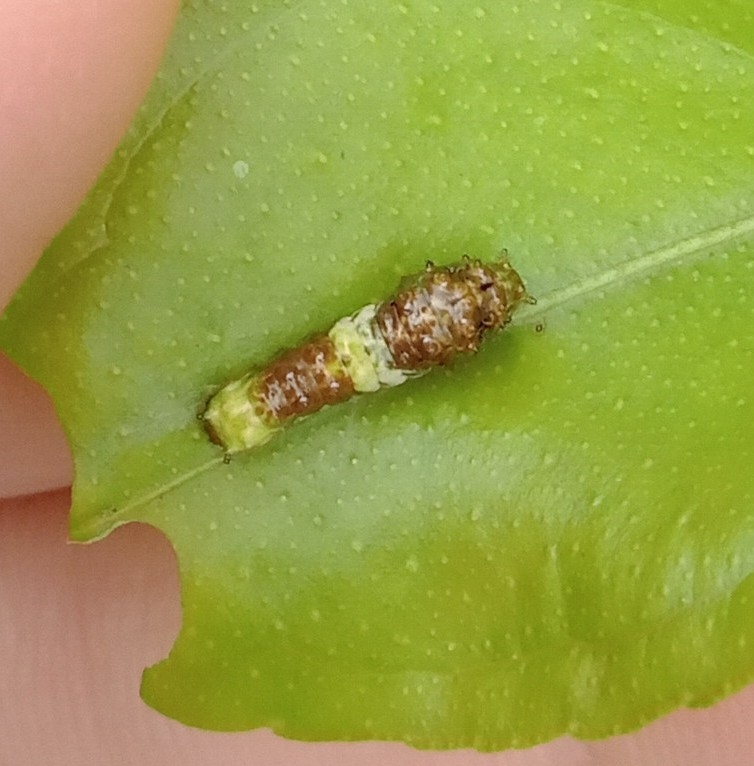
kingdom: Animalia
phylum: Arthropoda
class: Insecta
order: Lepidoptera
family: Papilionidae
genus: Papilio
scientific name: Papilio thoas
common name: King swallowtail
